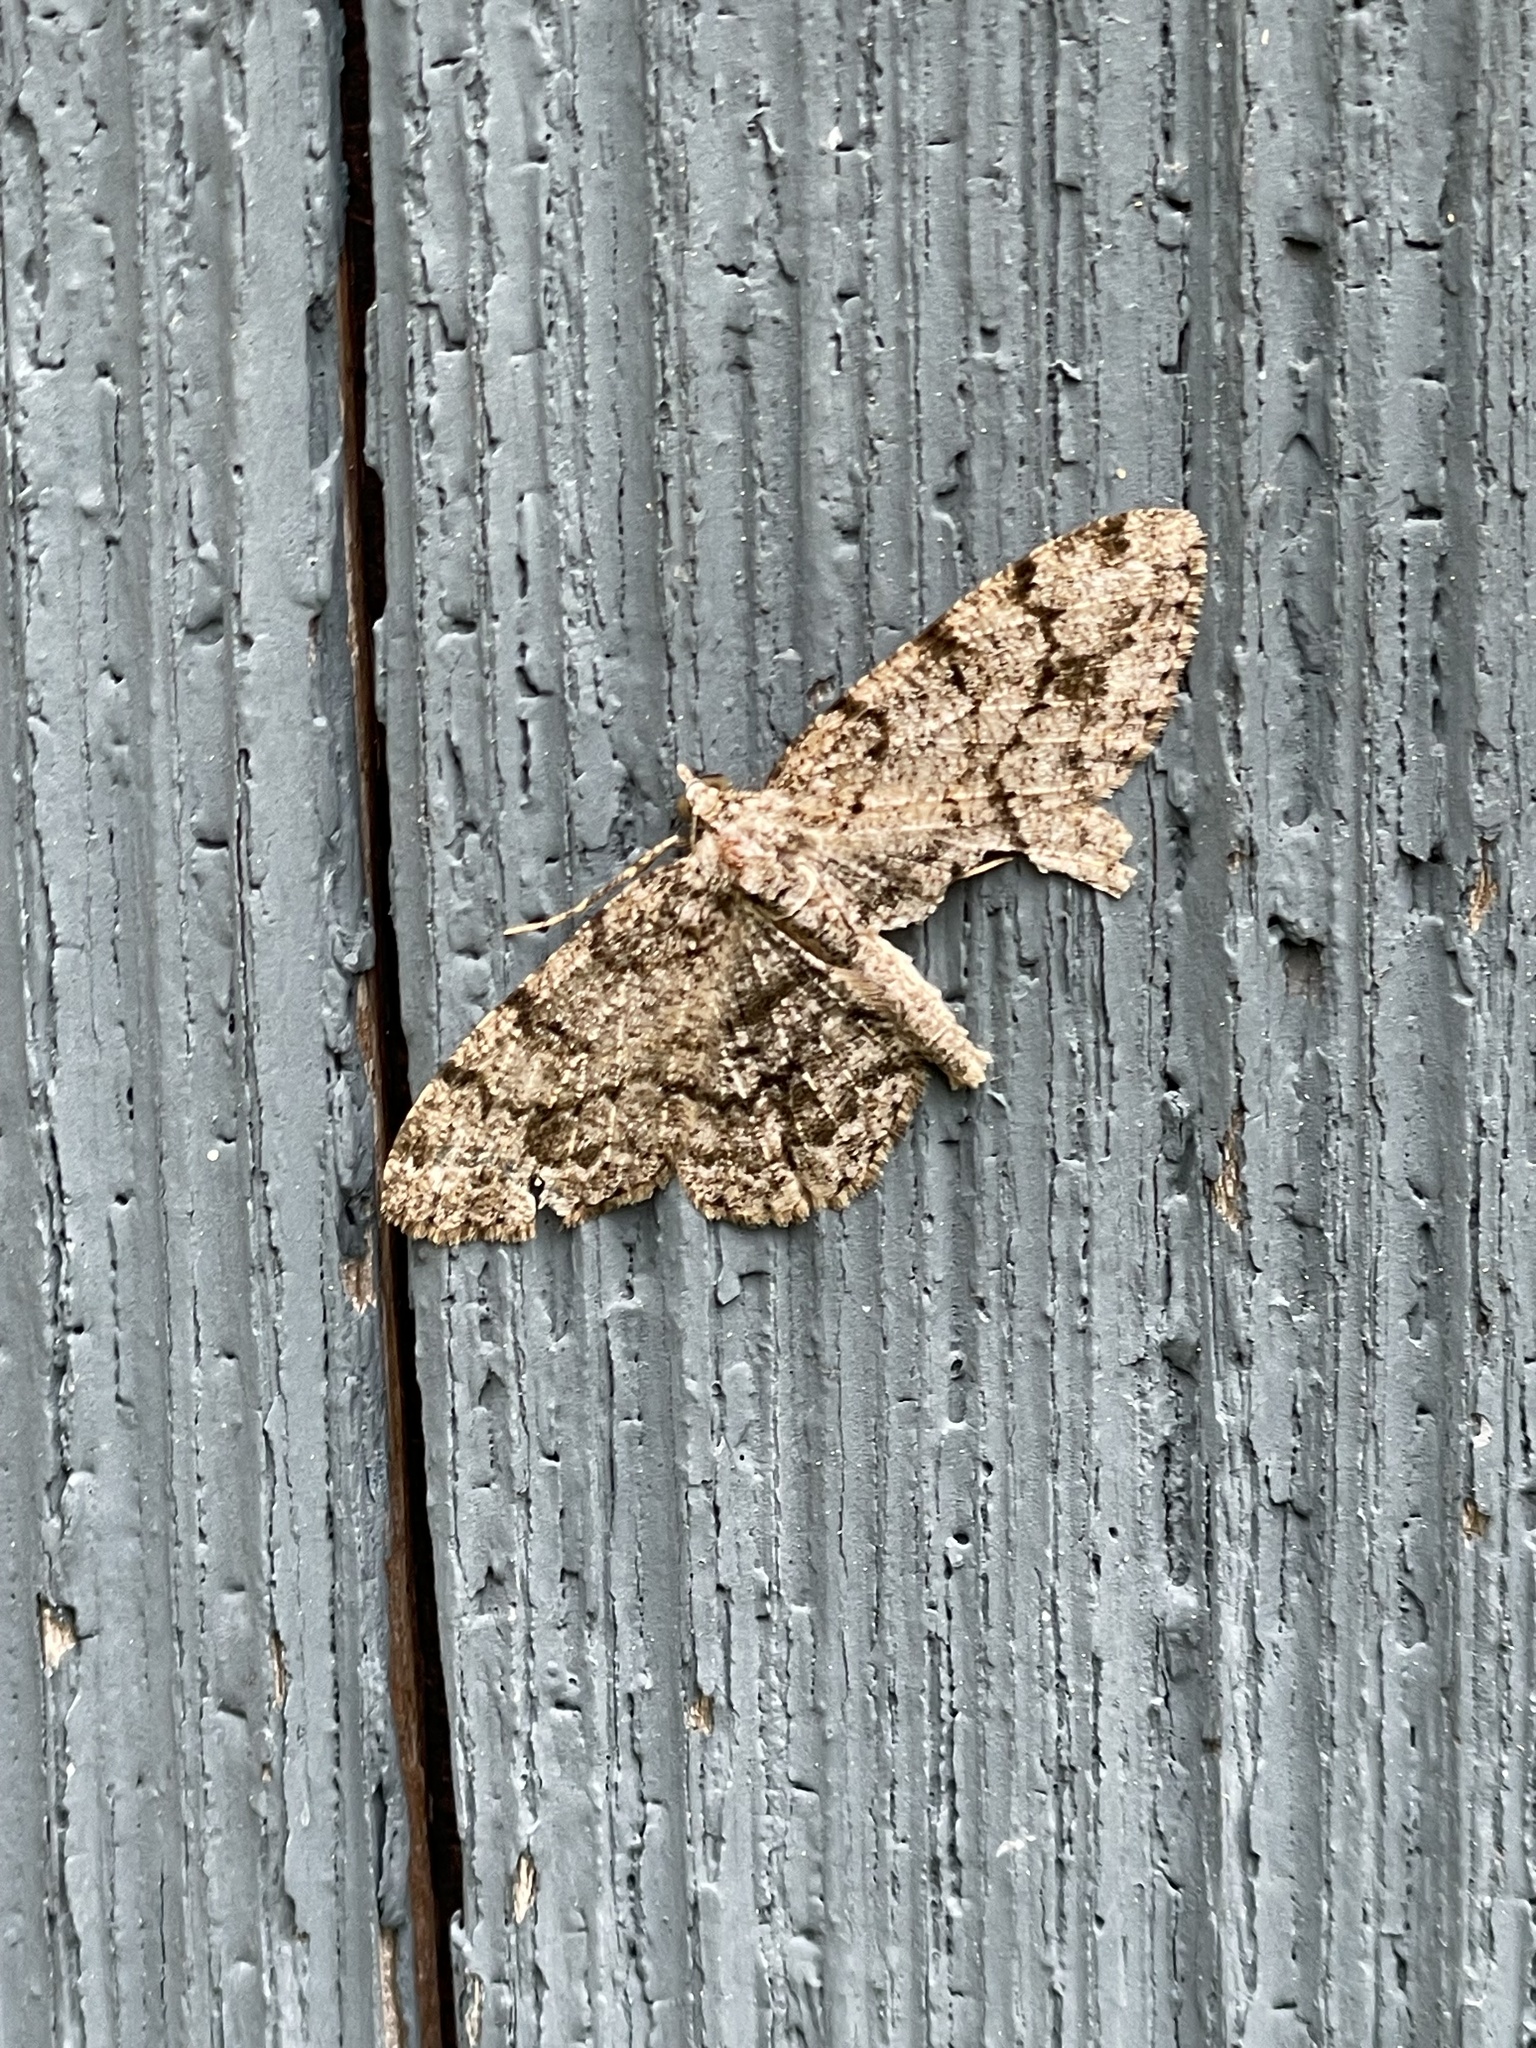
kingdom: Animalia
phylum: Arthropoda
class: Insecta
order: Lepidoptera
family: Geometridae
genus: Protoboarmia
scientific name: Protoboarmia porcelaria
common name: Porcelain gray
